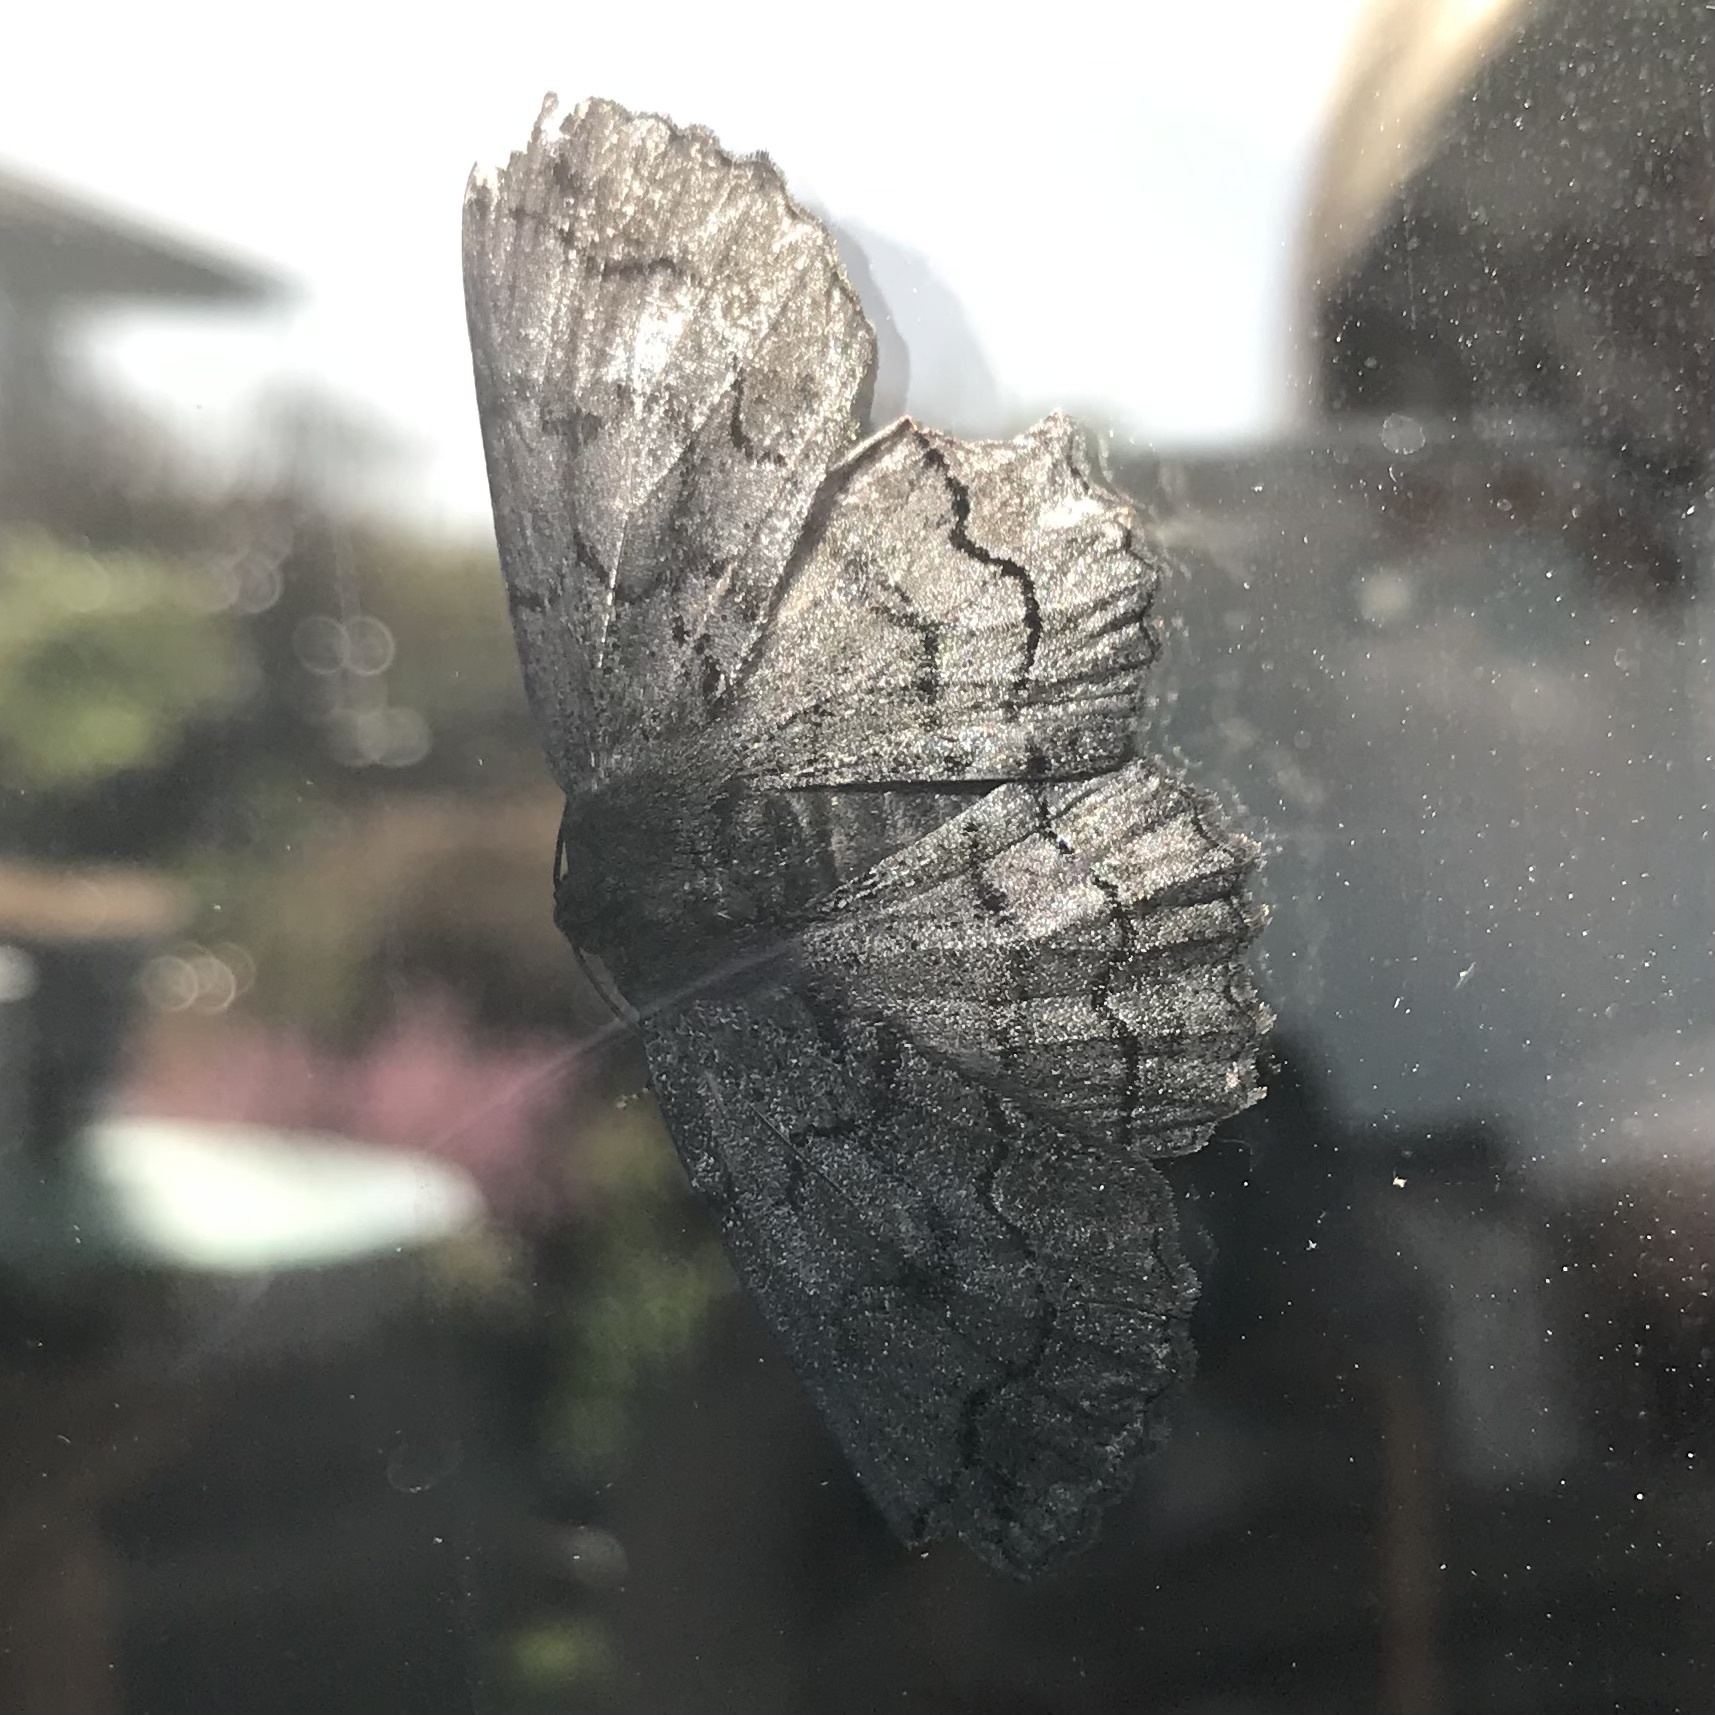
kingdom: Animalia
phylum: Arthropoda
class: Insecta
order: Lepidoptera
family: Geometridae
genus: Melanodes
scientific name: Melanodes anthracitaria
